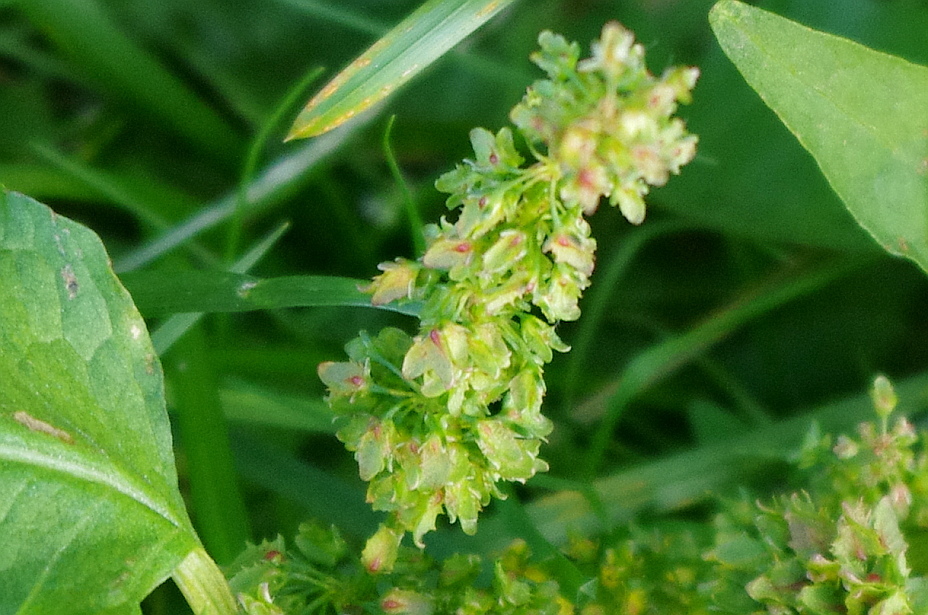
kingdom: Plantae
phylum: Tracheophyta
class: Magnoliopsida
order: Caryophyllales
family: Polygonaceae
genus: Rumex
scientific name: Rumex obtusifolius
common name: Bitter dock
